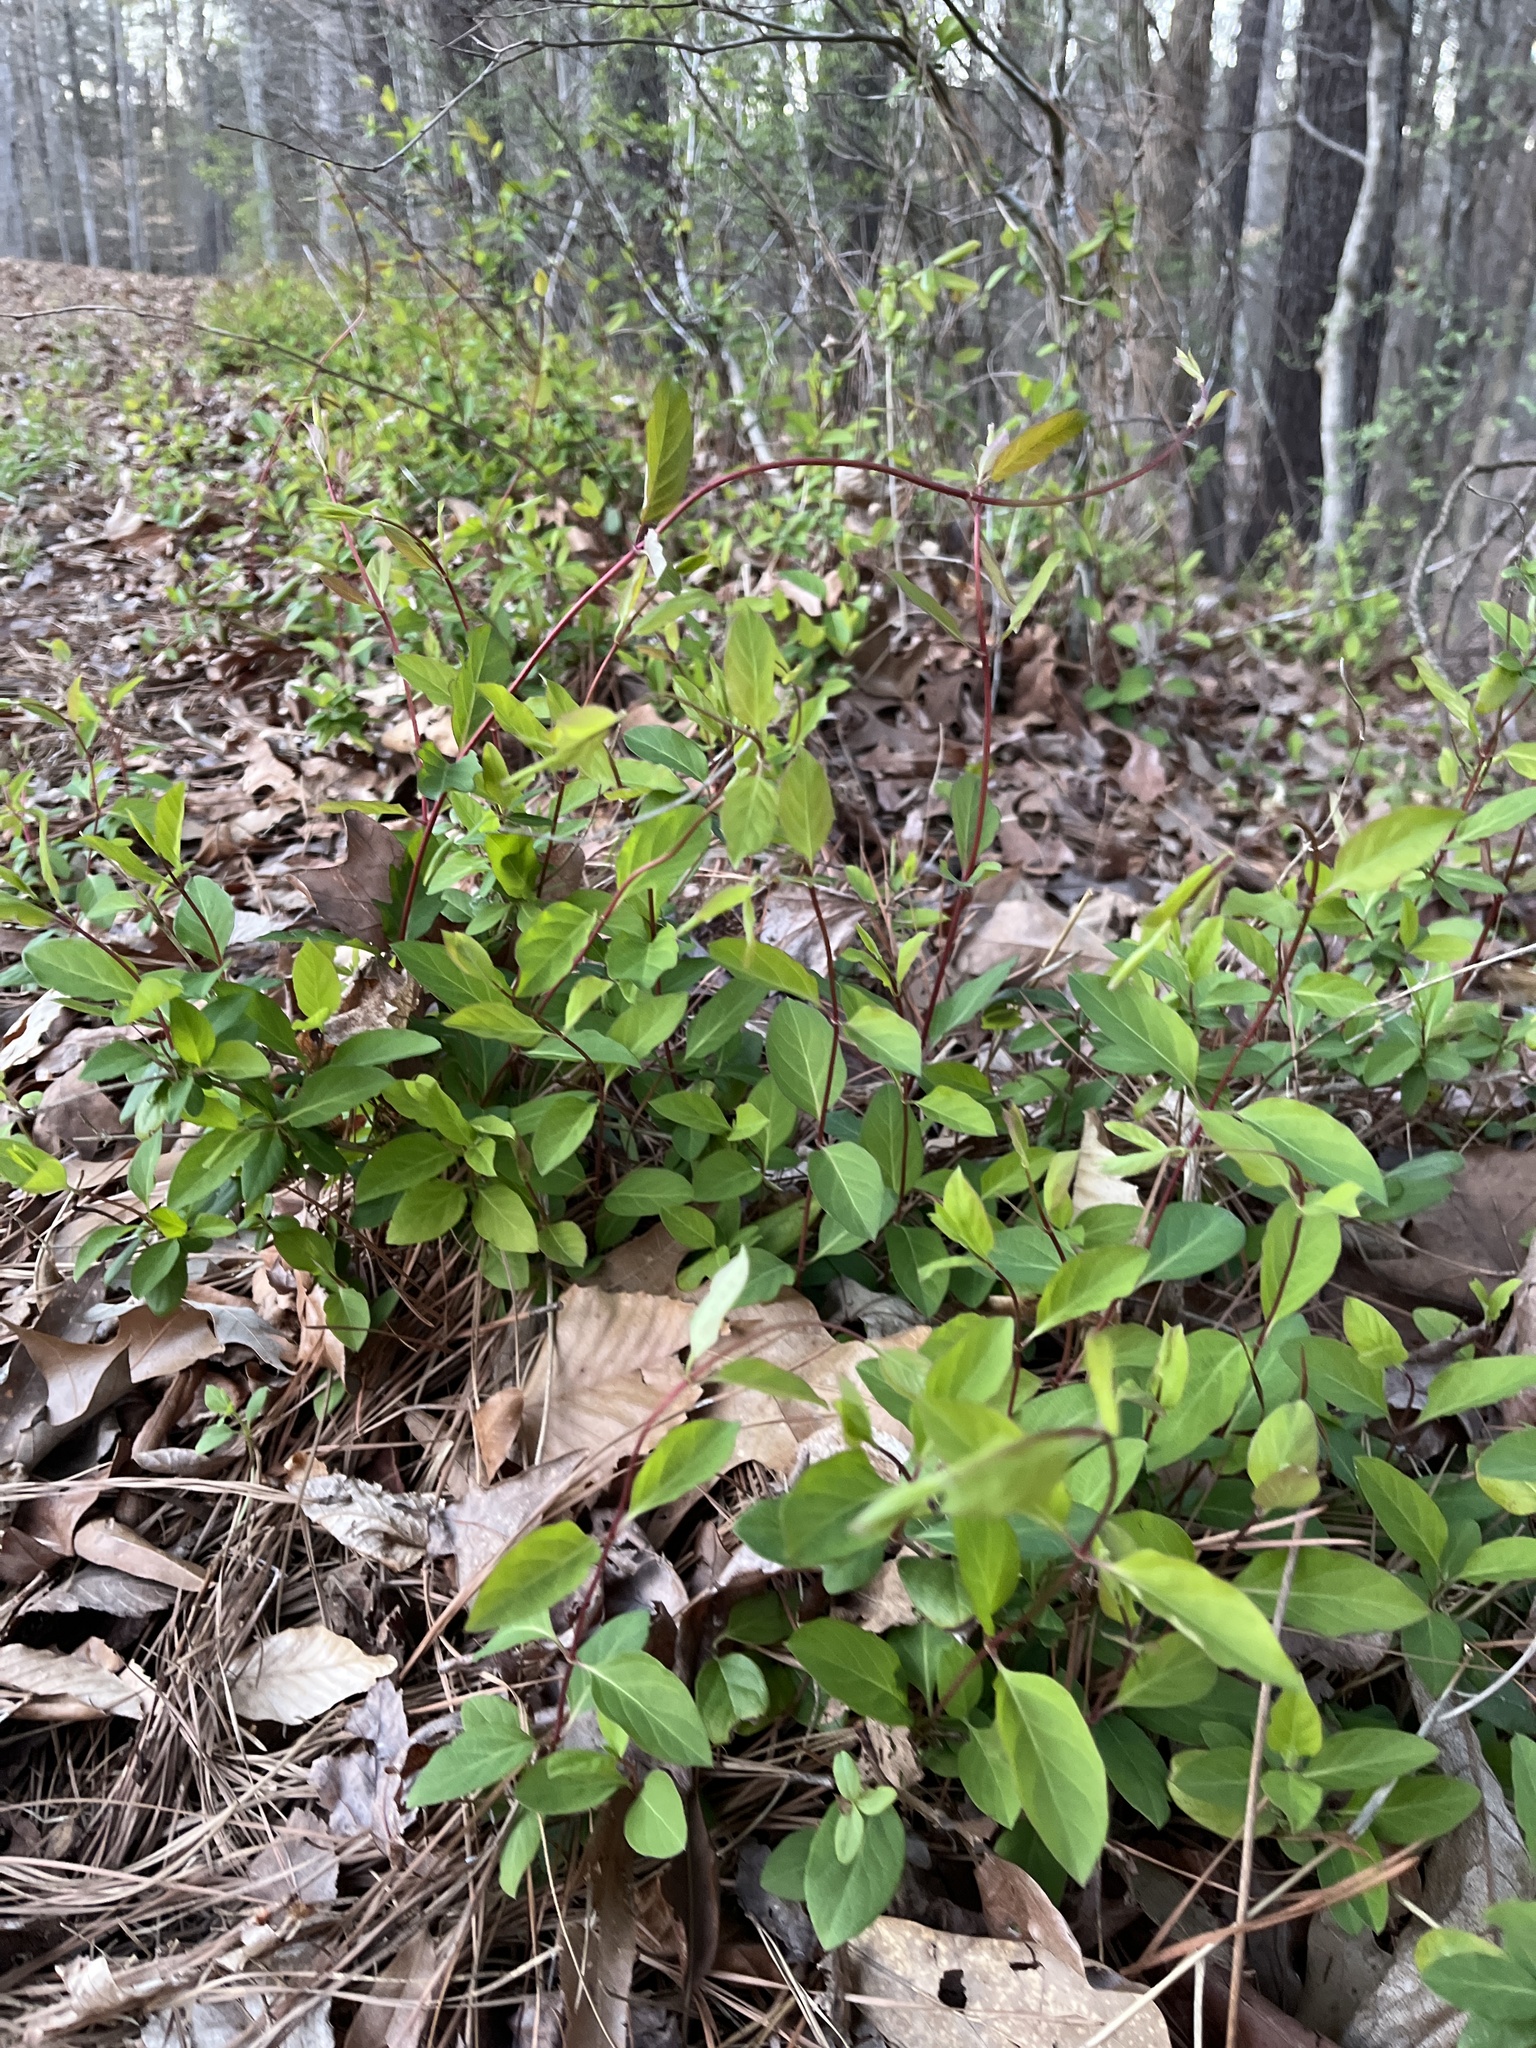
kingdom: Plantae
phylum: Tracheophyta
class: Magnoliopsida
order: Dipsacales
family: Caprifoliaceae
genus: Lonicera
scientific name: Lonicera japonica
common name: Japanese honeysuckle
